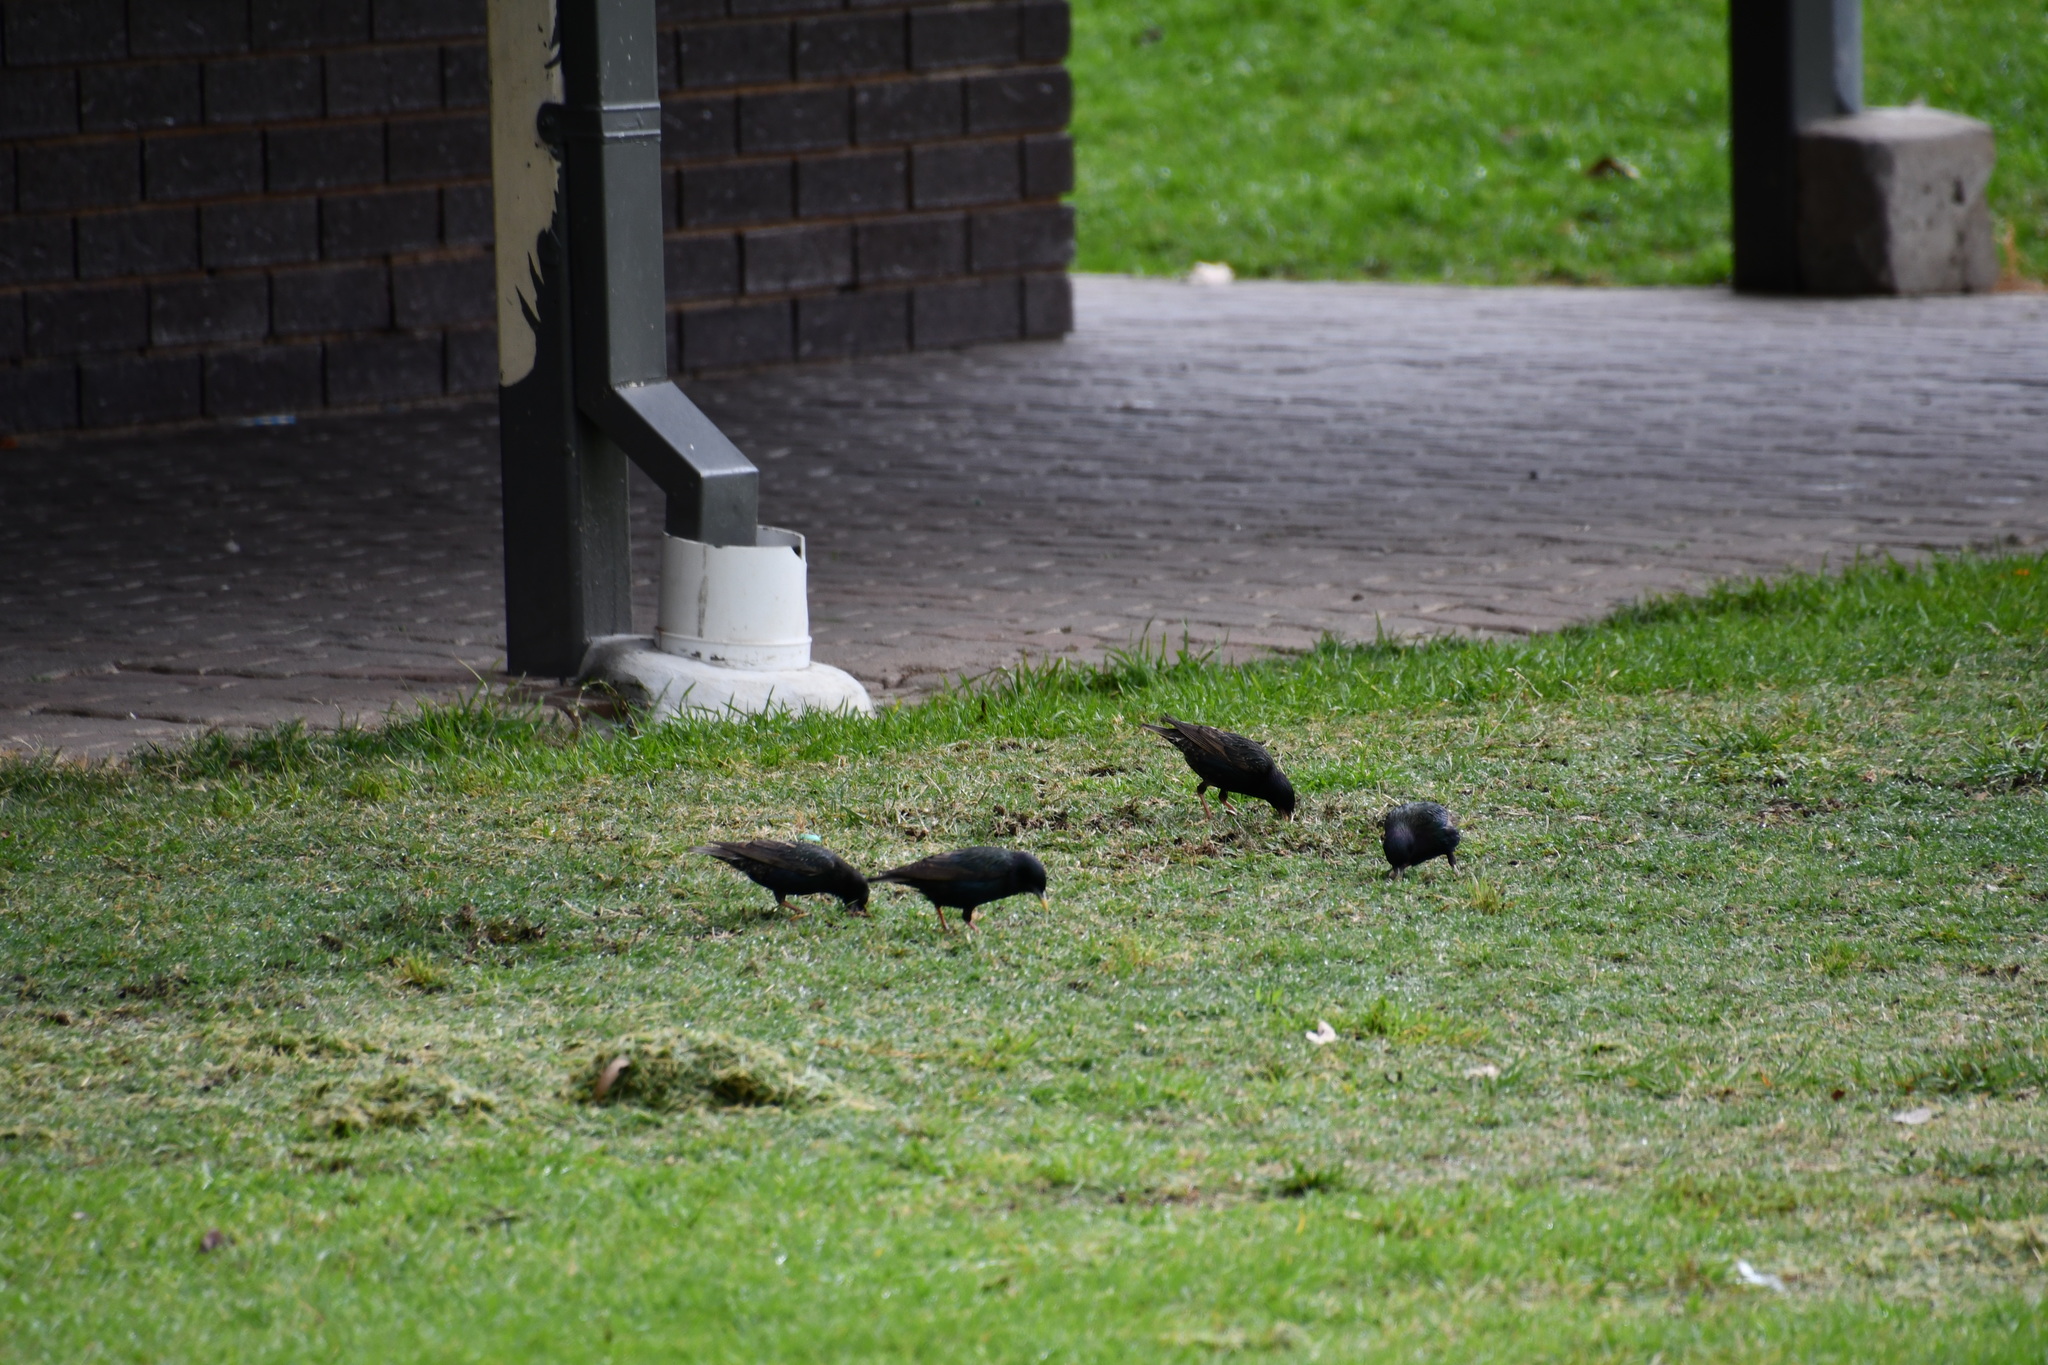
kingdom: Animalia
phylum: Chordata
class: Aves
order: Passeriformes
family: Sturnidae
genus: Sturnus
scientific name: Sturnus vulgaris
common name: Common starling
